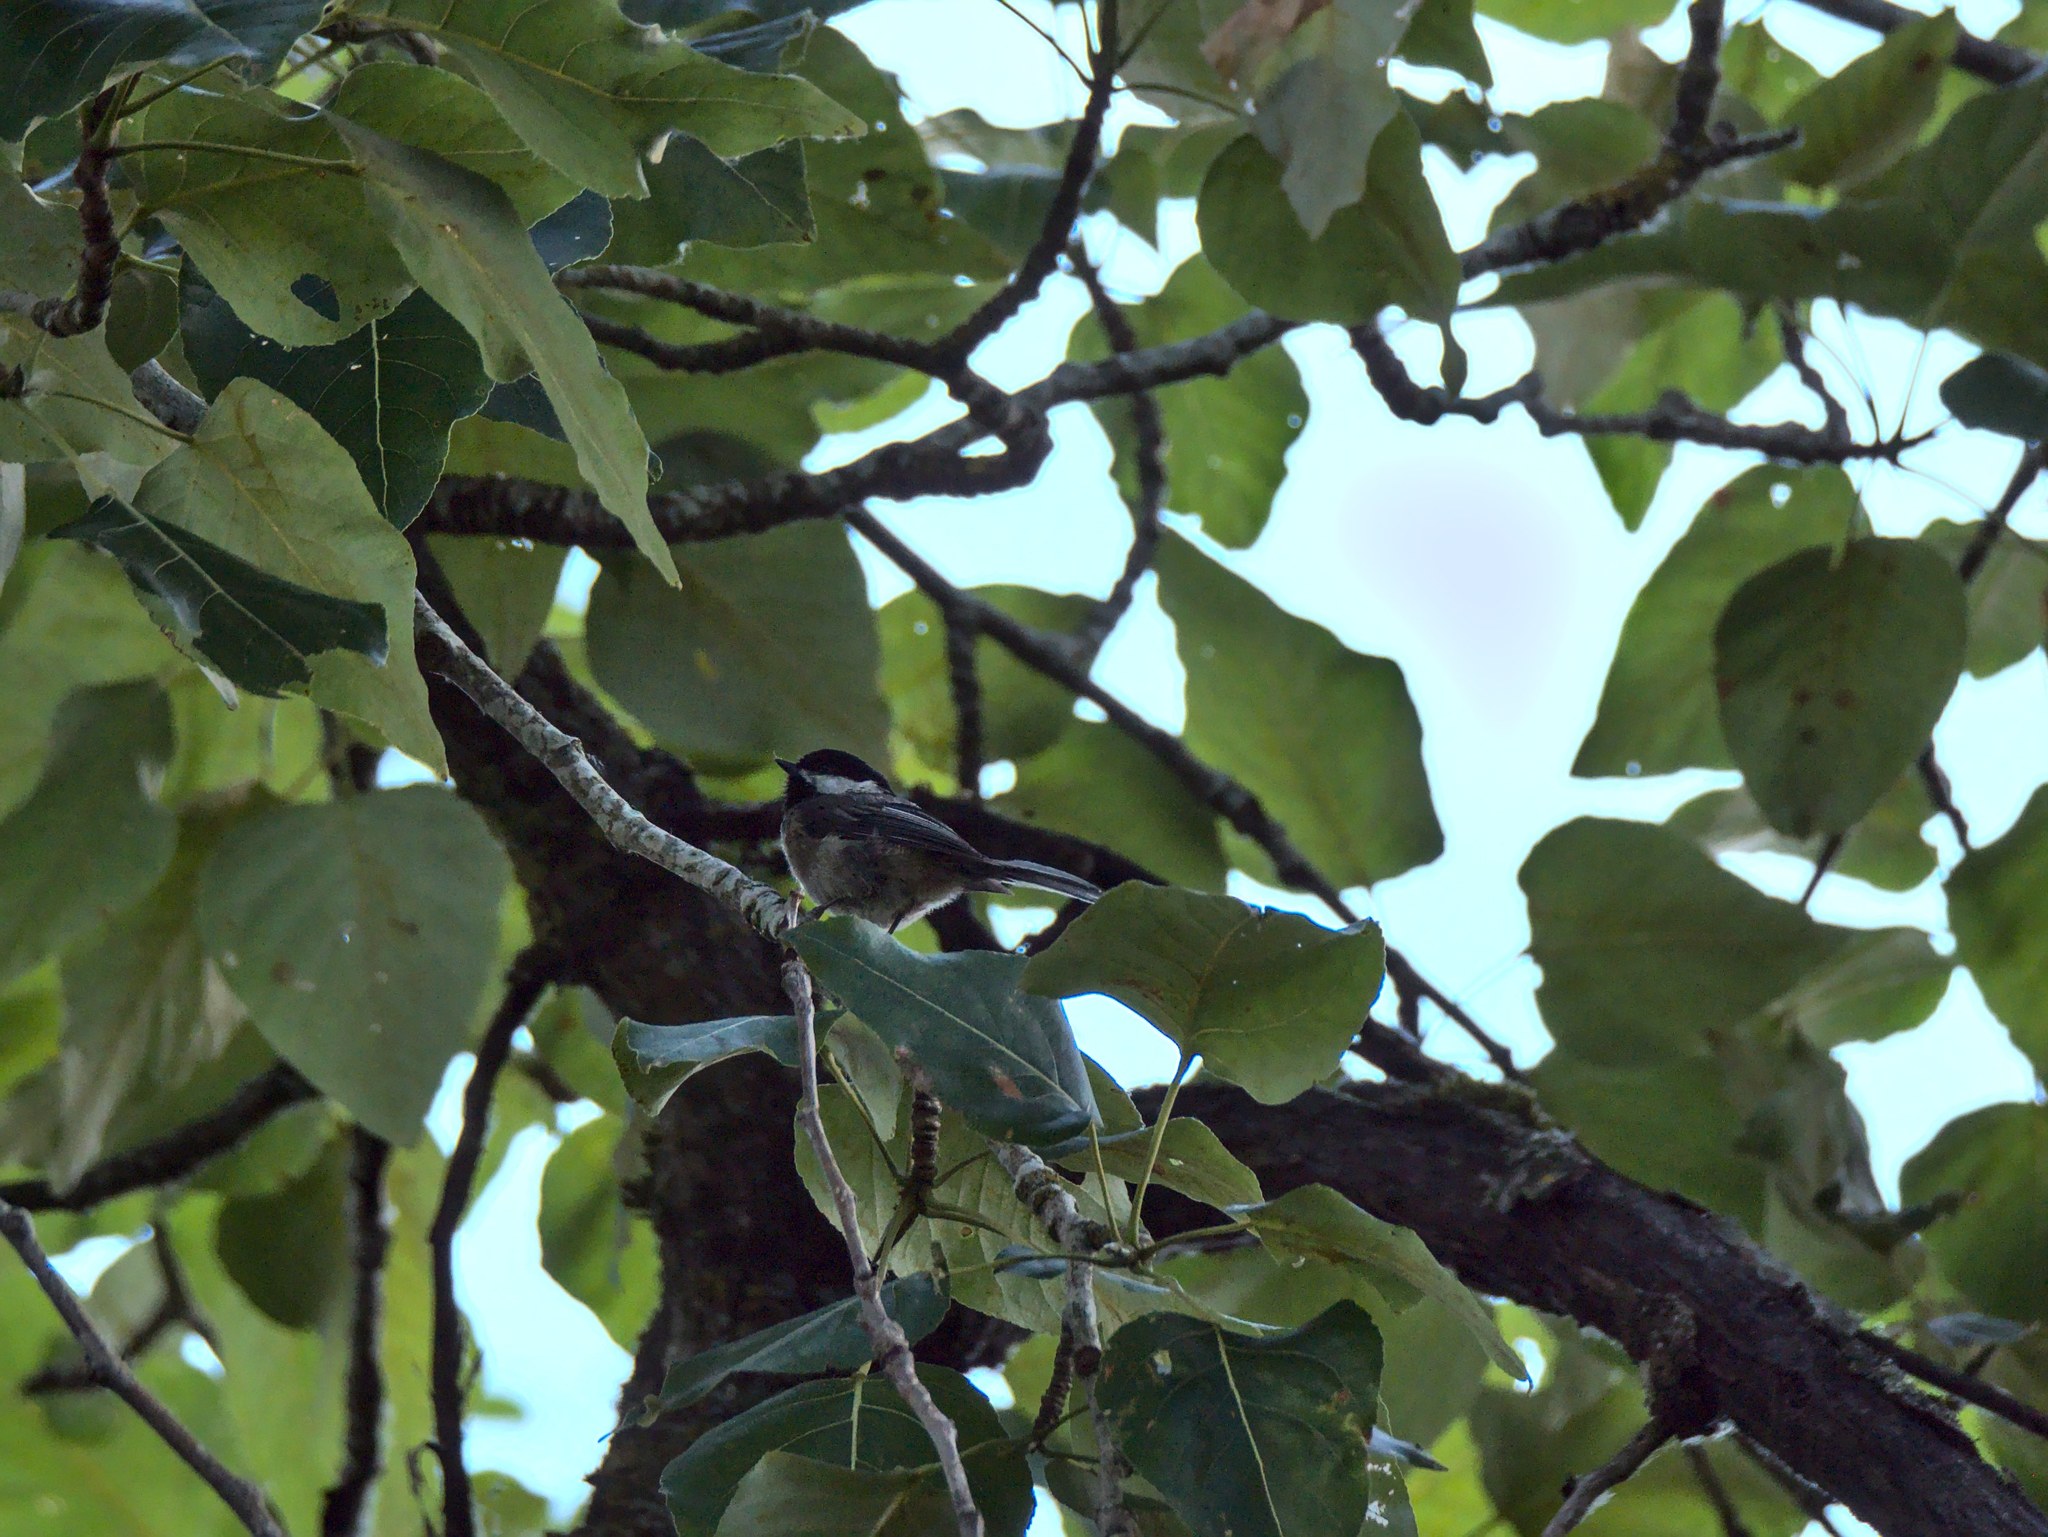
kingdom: Animalia
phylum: Chordata
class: Aves
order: Passeriformes
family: Paridae
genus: Poecile
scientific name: Poecile atricapillus
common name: Black-capped chickadee
